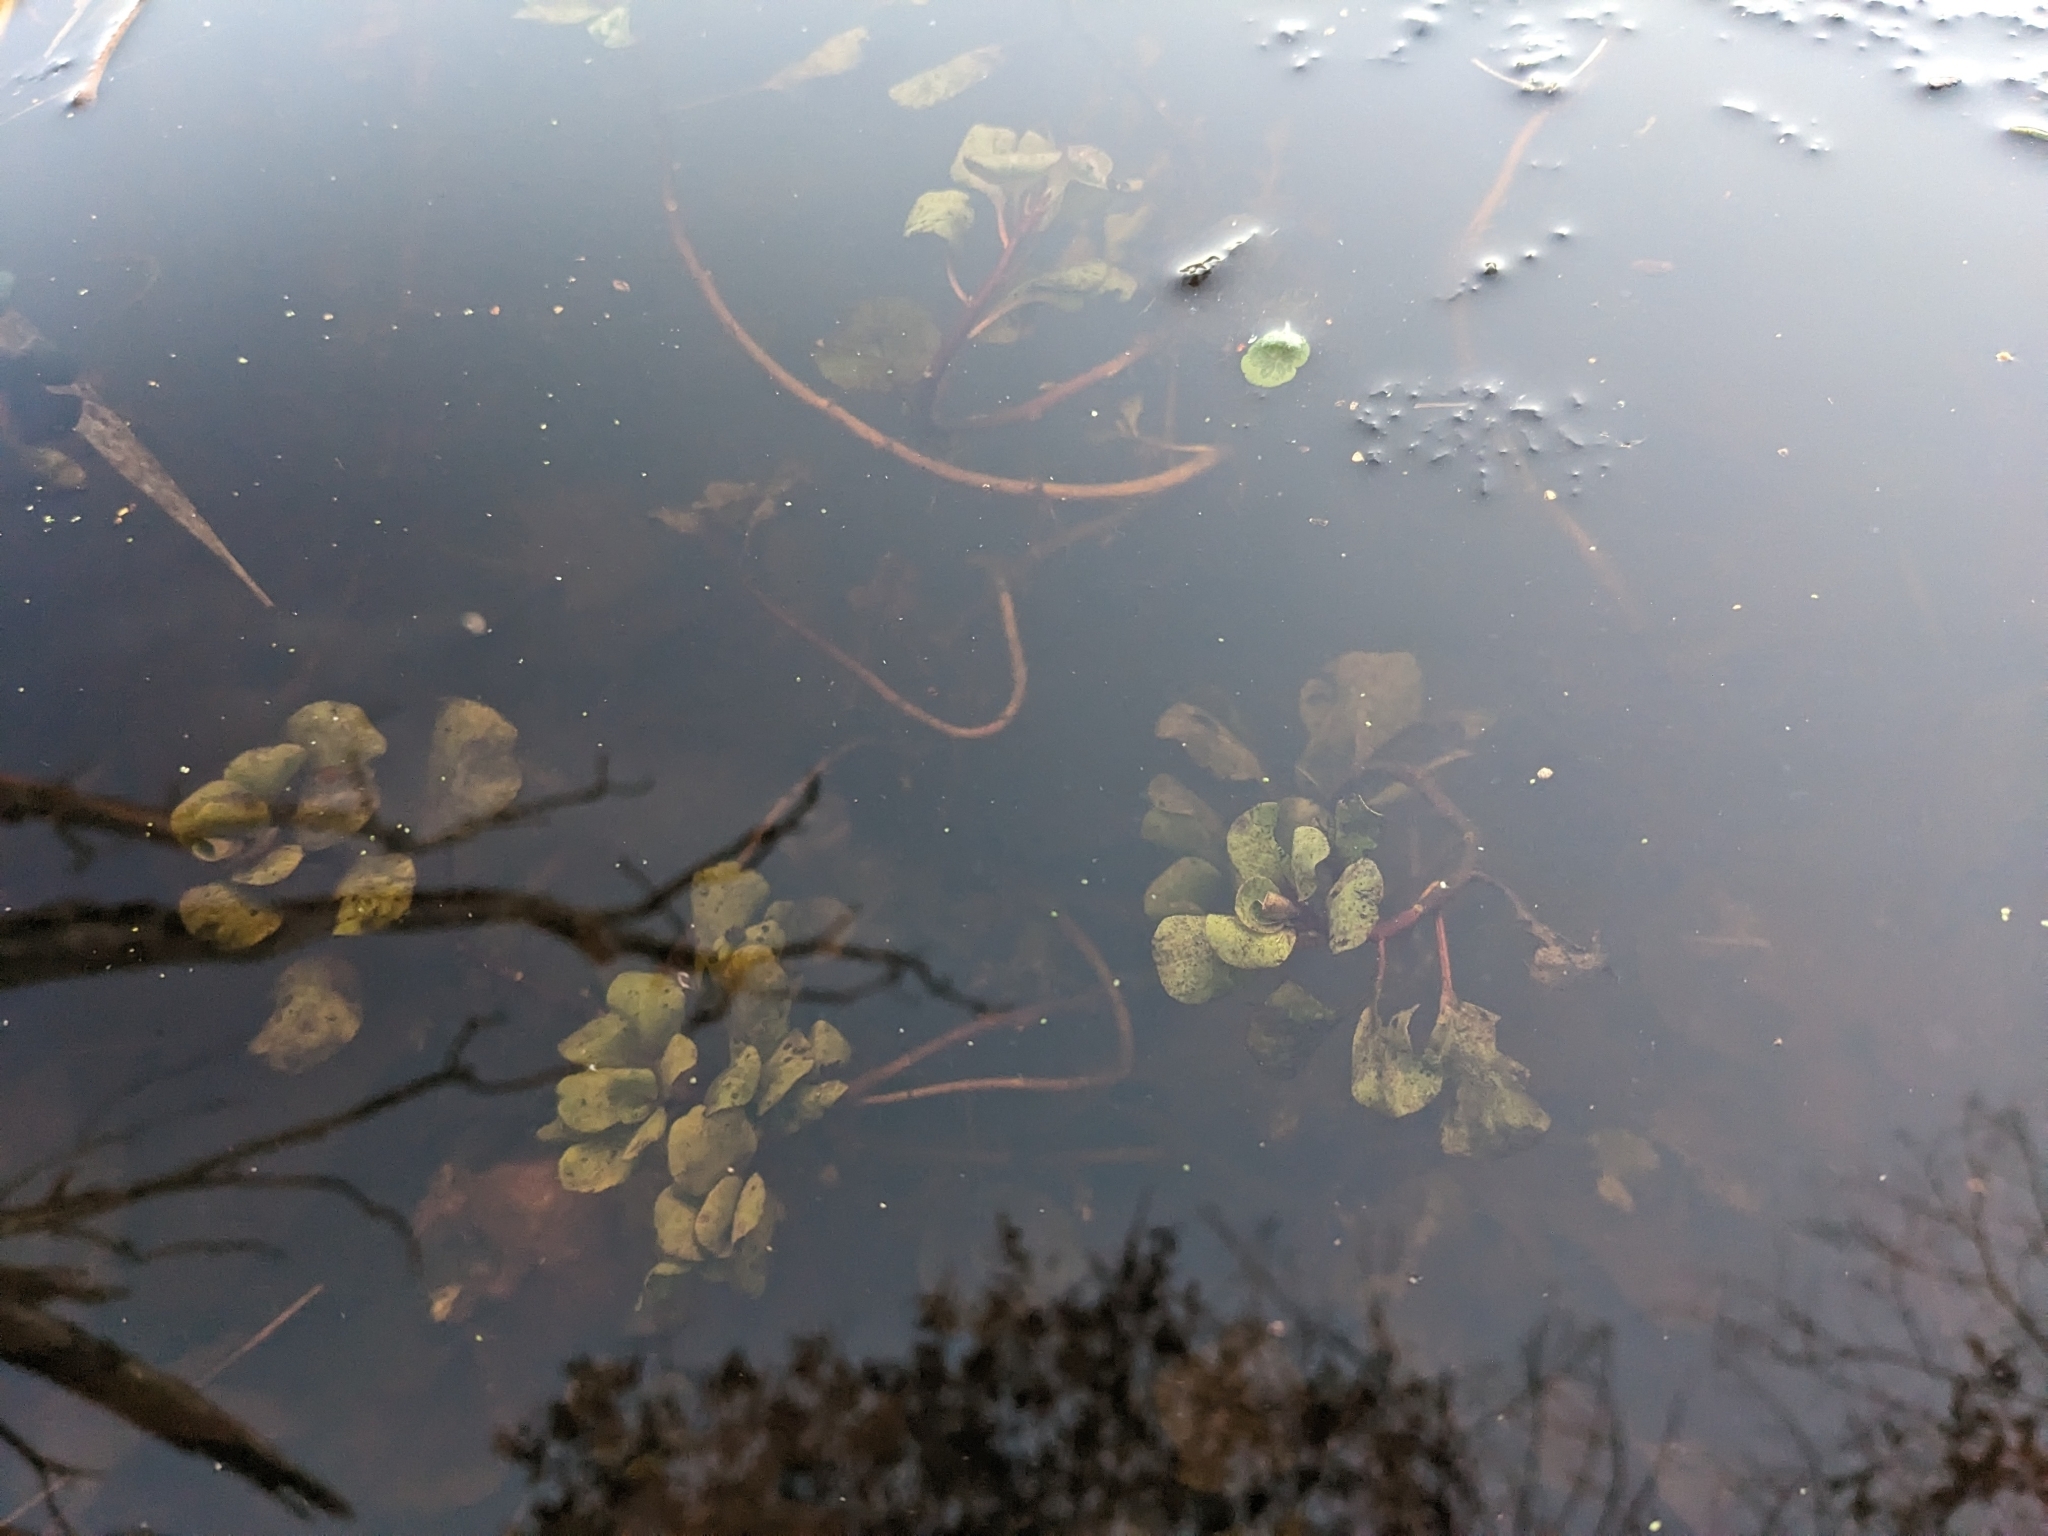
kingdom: Plantae
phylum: Tracheophyta
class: Magnoliopsida
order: Myrtales
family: Onagraceae
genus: Ludwigia
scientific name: Ludwigia peploides
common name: Floating primrose-willow
